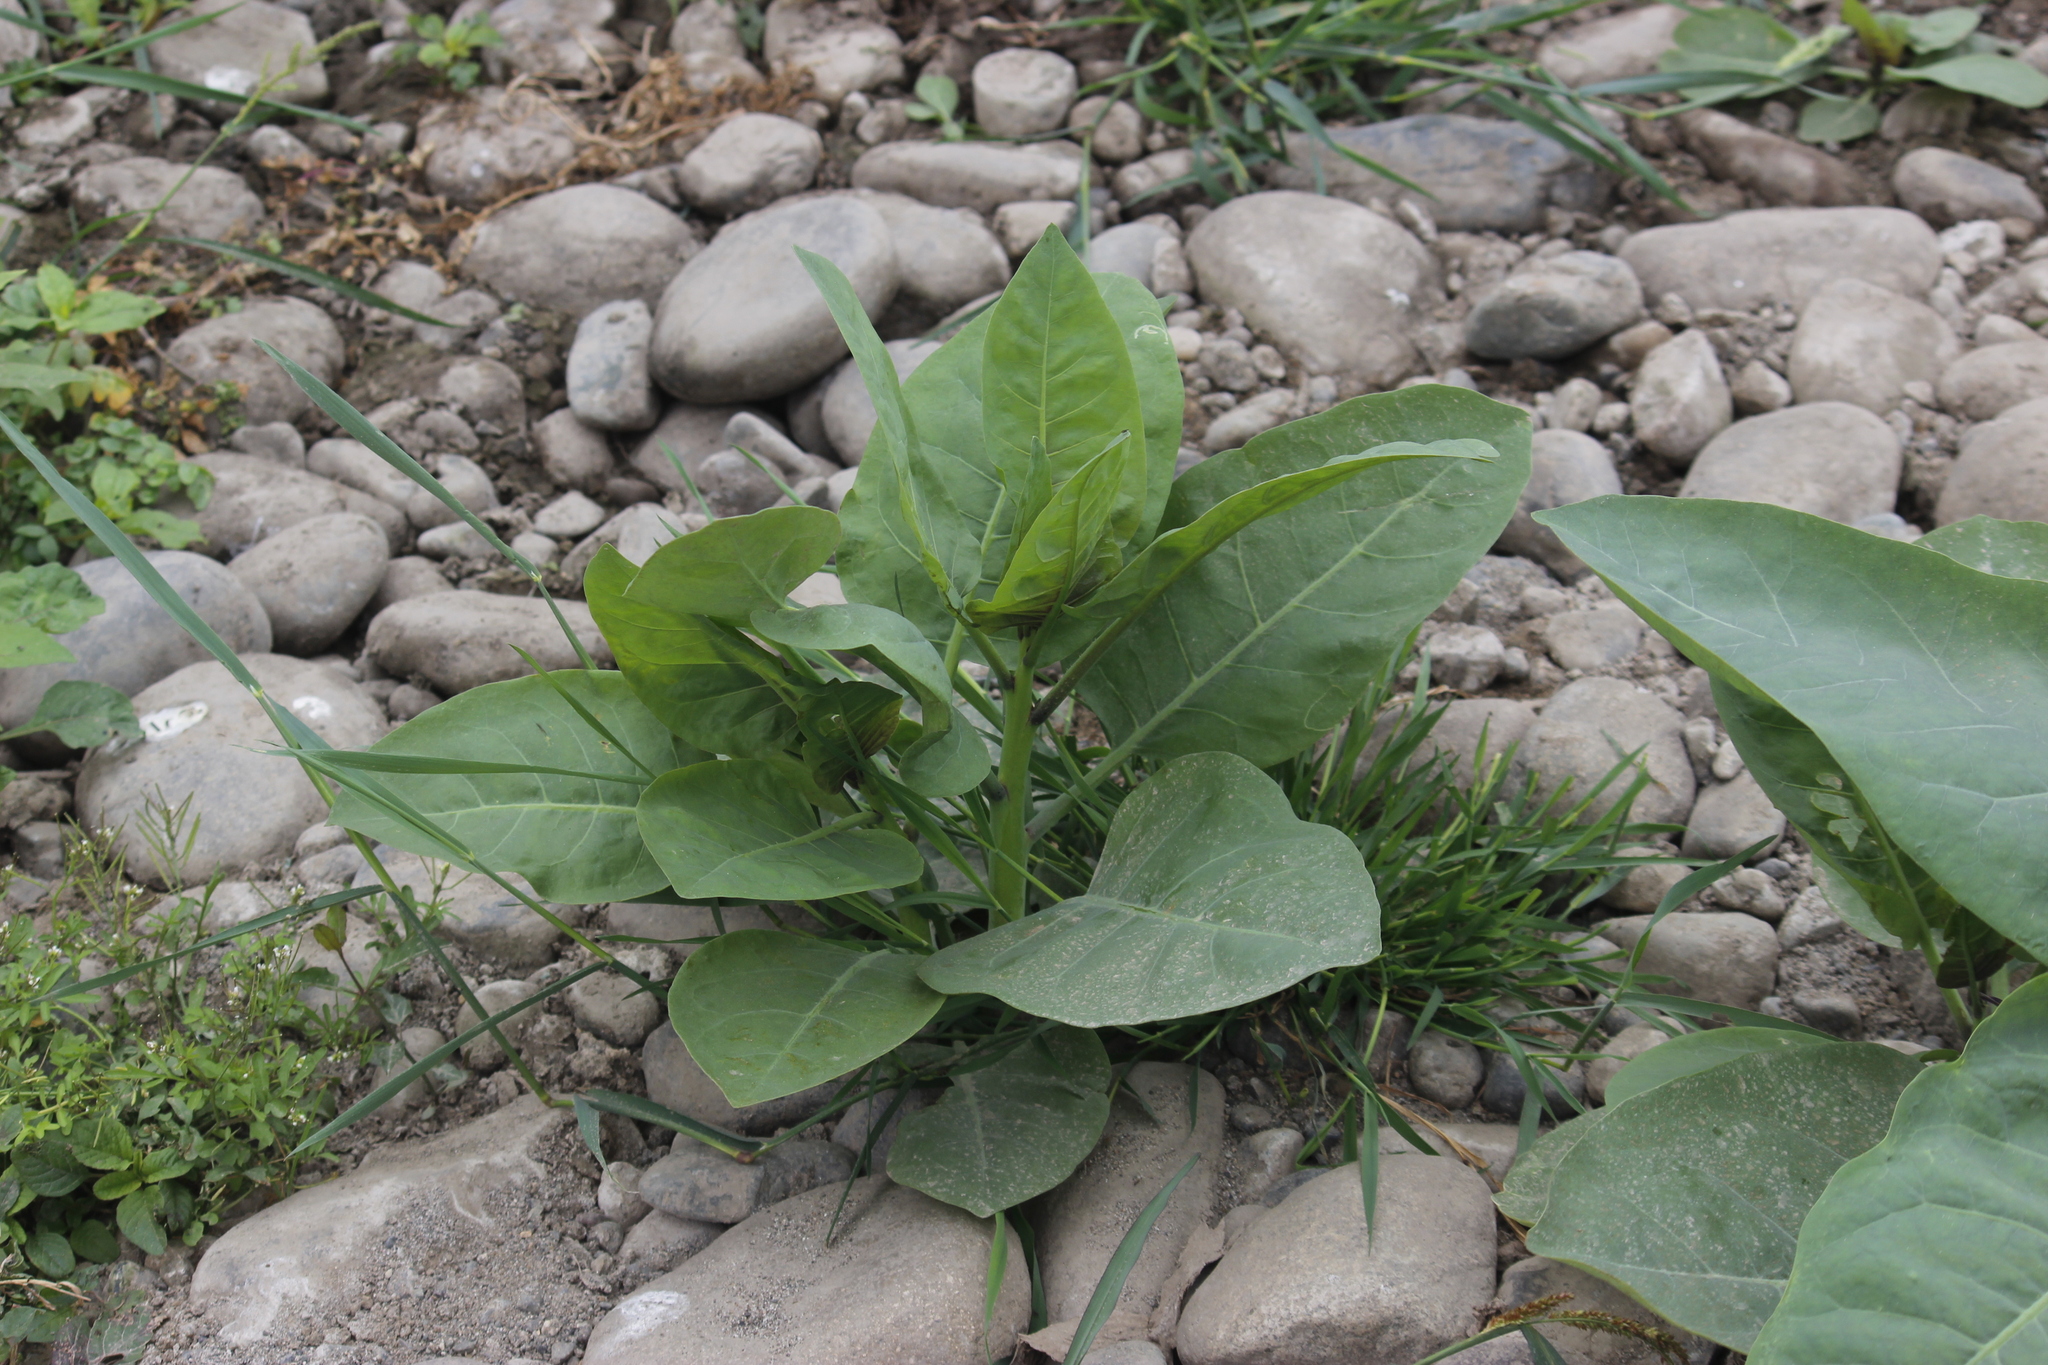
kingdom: Plantae
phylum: Tracheophyta
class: Magnoliopsida
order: Solanales
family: Solanaceae
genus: Nicotiana
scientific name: Nicotiana glauca
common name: Tree tobacco
